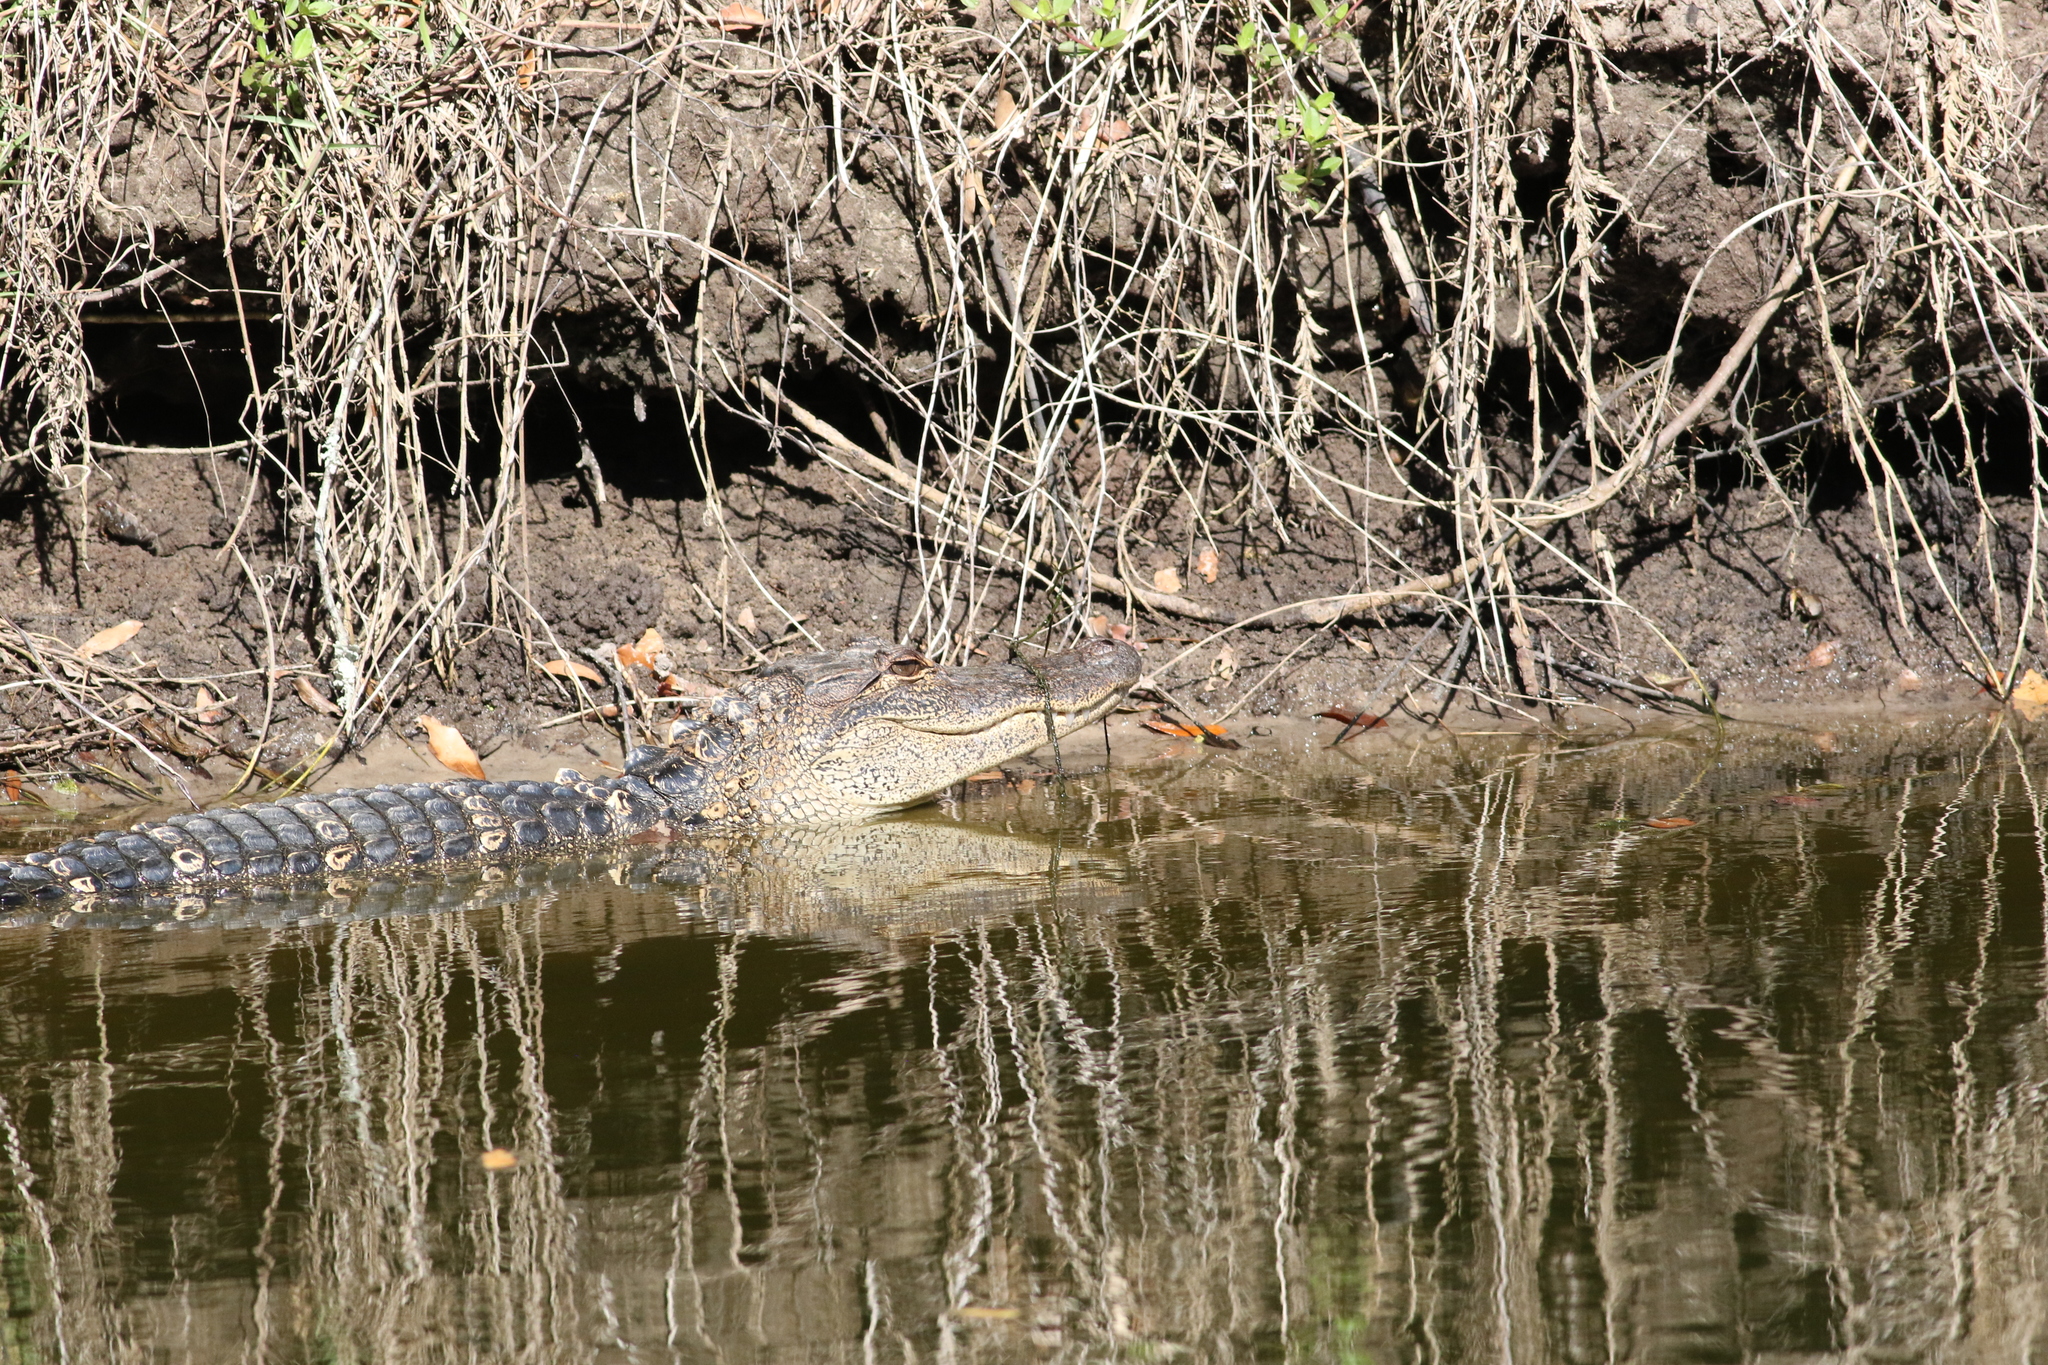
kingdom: Animalia
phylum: Chordata
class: Crocodylia
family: Alligatoridae
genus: Alligator
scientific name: Alligator mississippiensis
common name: American alligator
